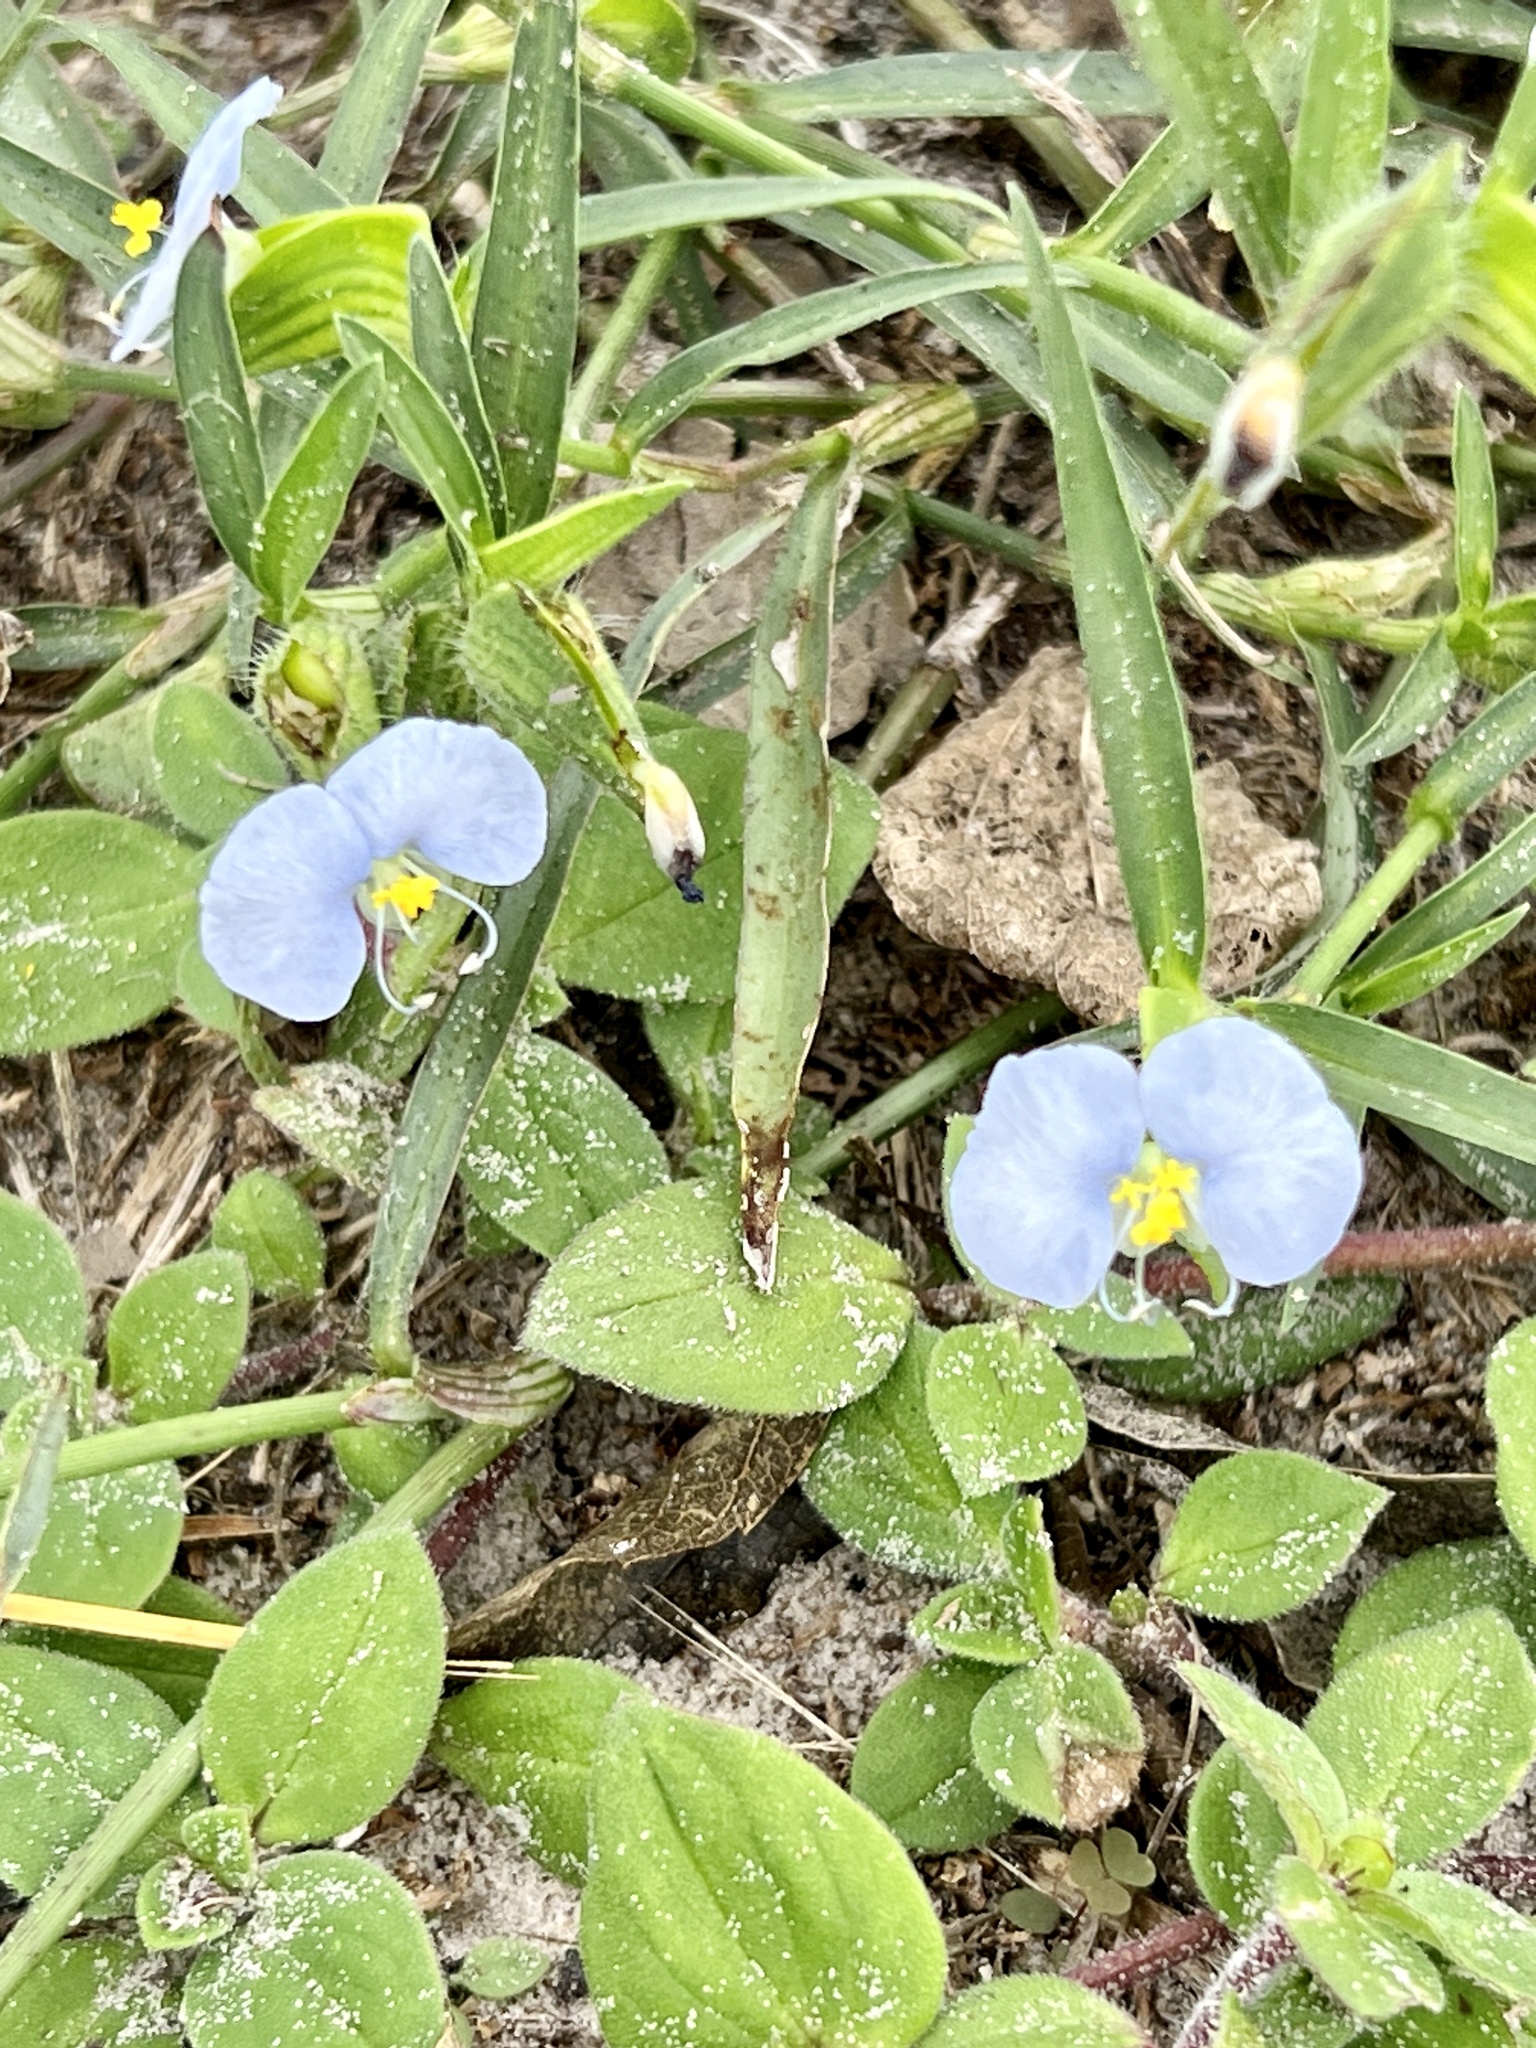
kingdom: Plantae
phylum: Tracheophyta
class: Liliopsida
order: Commelinales
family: Commelinaceae
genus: Commelina
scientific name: Commelina erecta
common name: Blousel blommetjie
